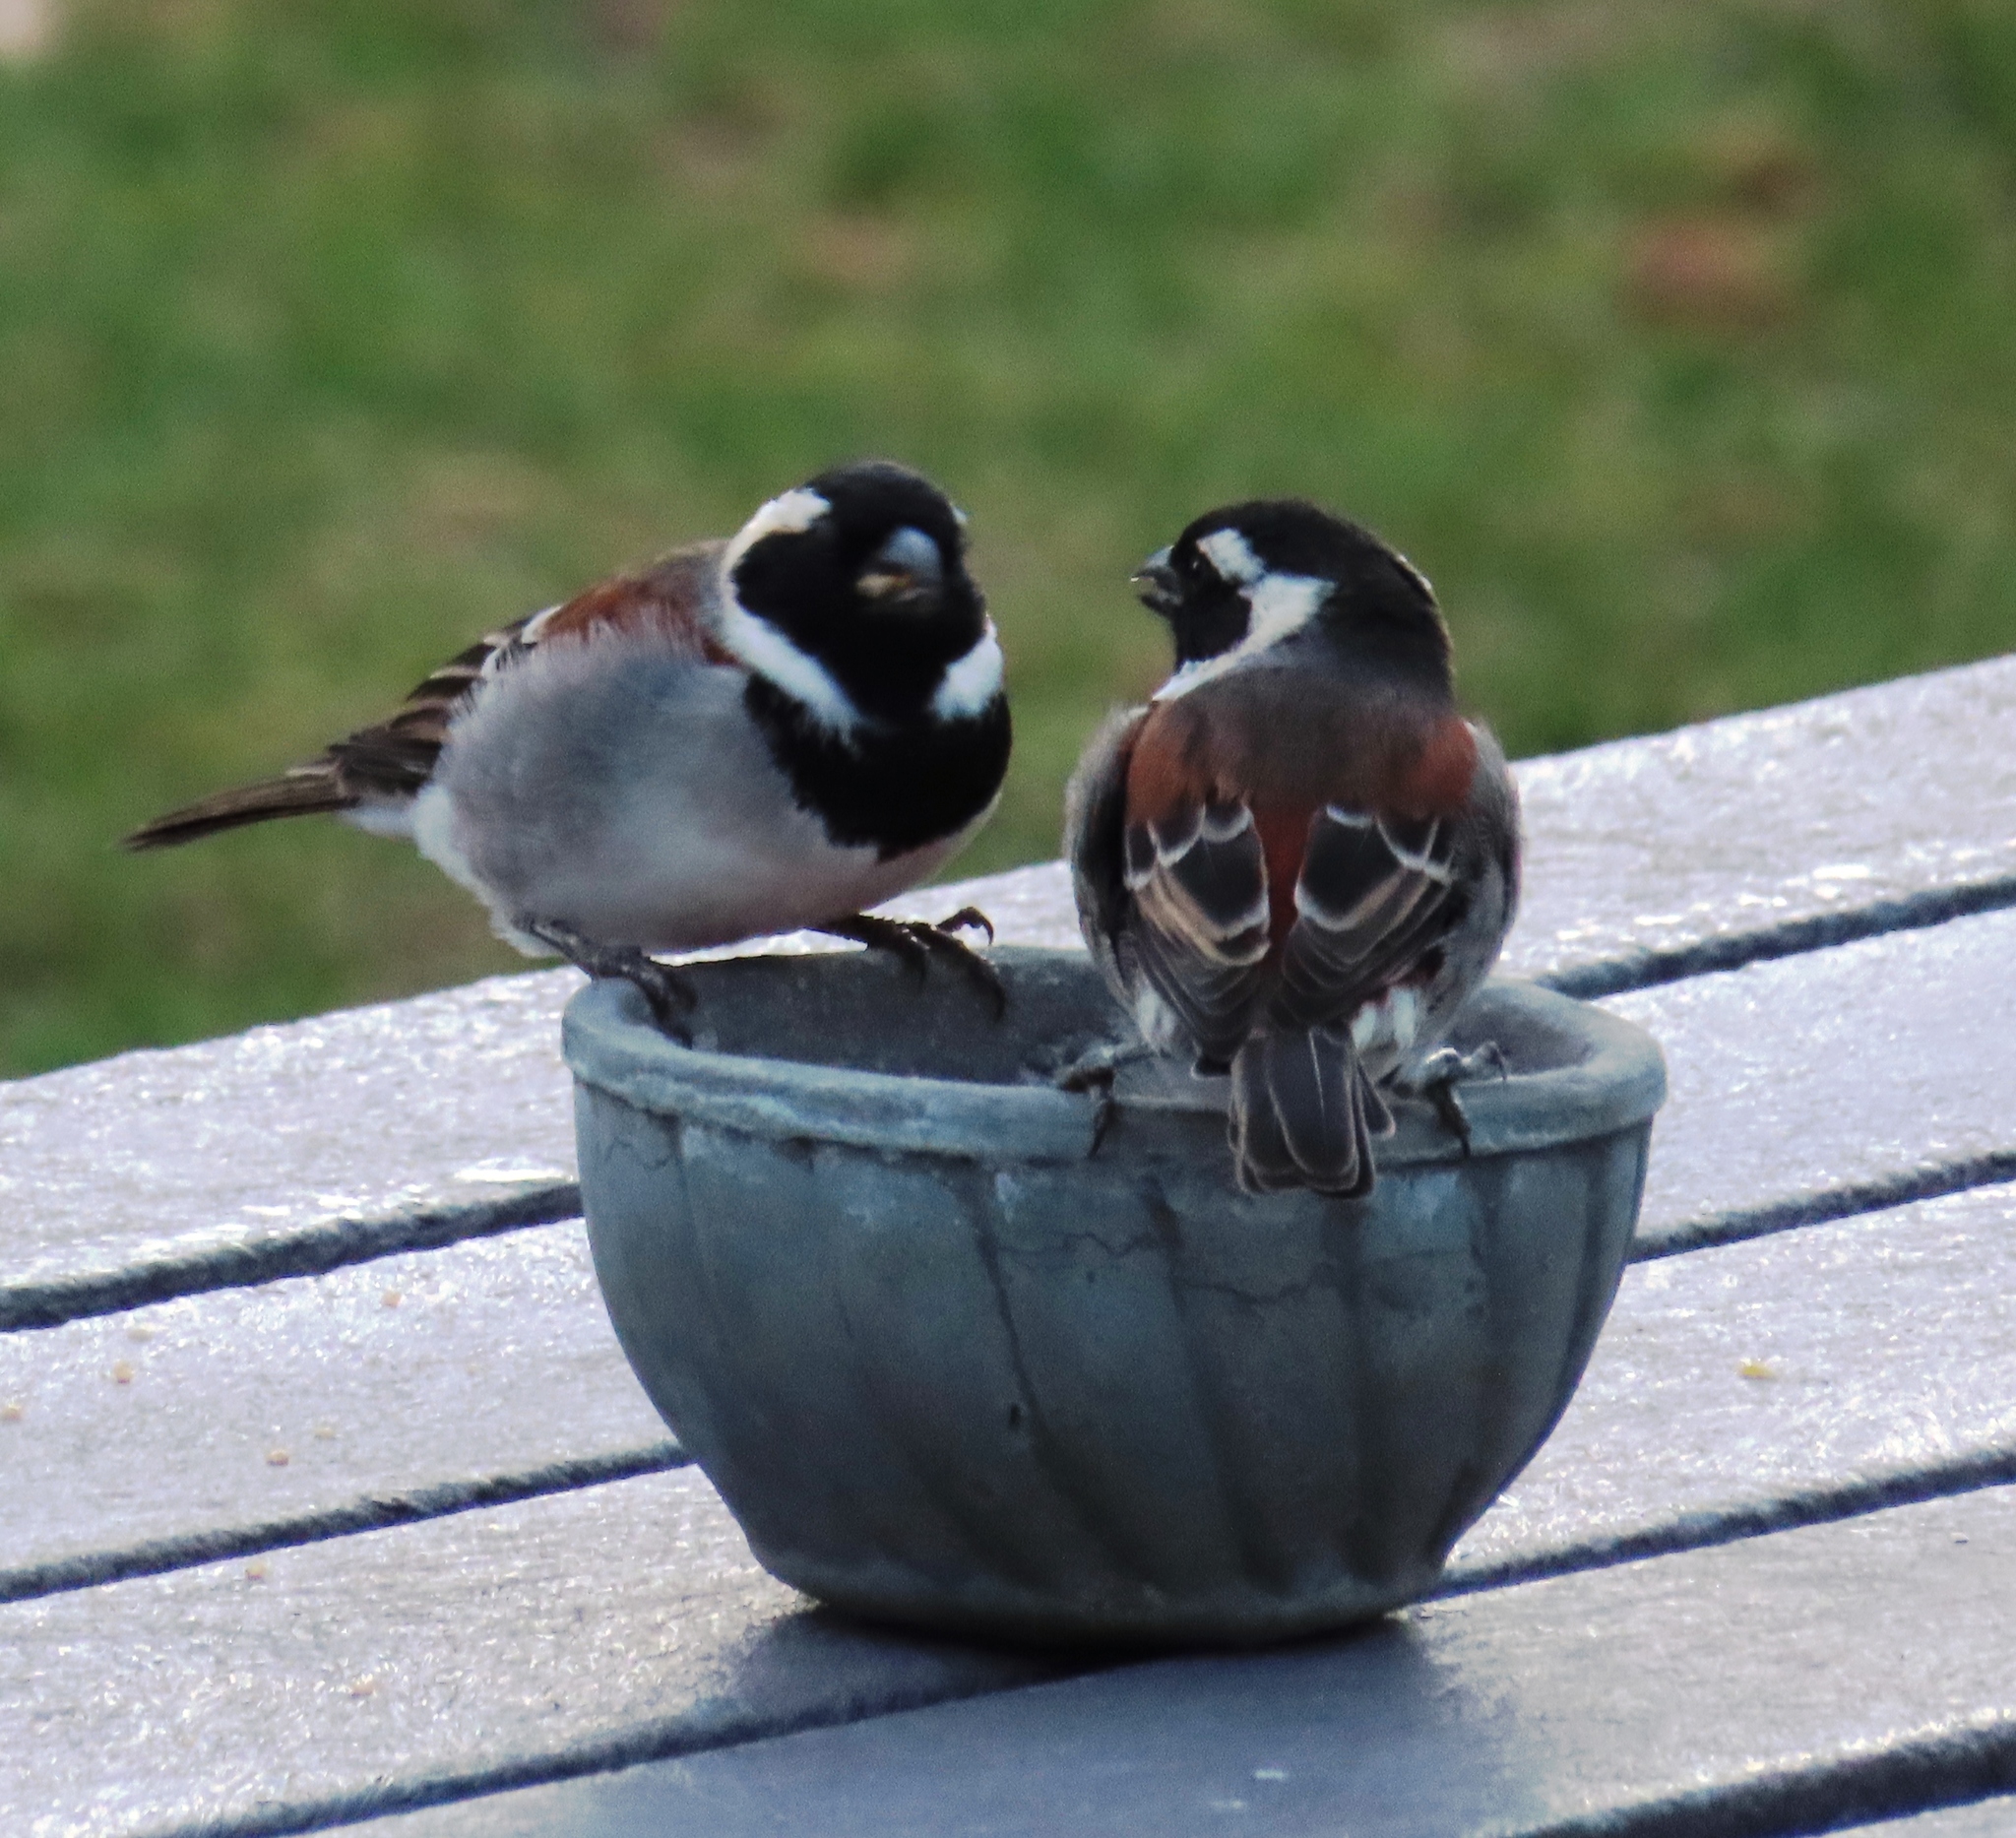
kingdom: Animalia
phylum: Chordata
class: Aves
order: Passeriformes
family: Passeridae
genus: Passer
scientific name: Passer melanurus
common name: Cape sparrow
